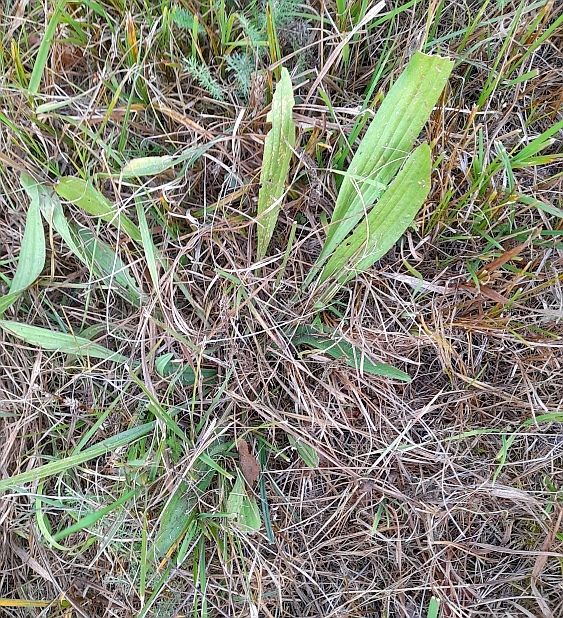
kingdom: Plantae
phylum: Tracheophyta
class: Magnoliopsida
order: Lamiales
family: Plantaginaceae
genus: Plantago
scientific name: Plantago lanceolata
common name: Ribwort plantain
